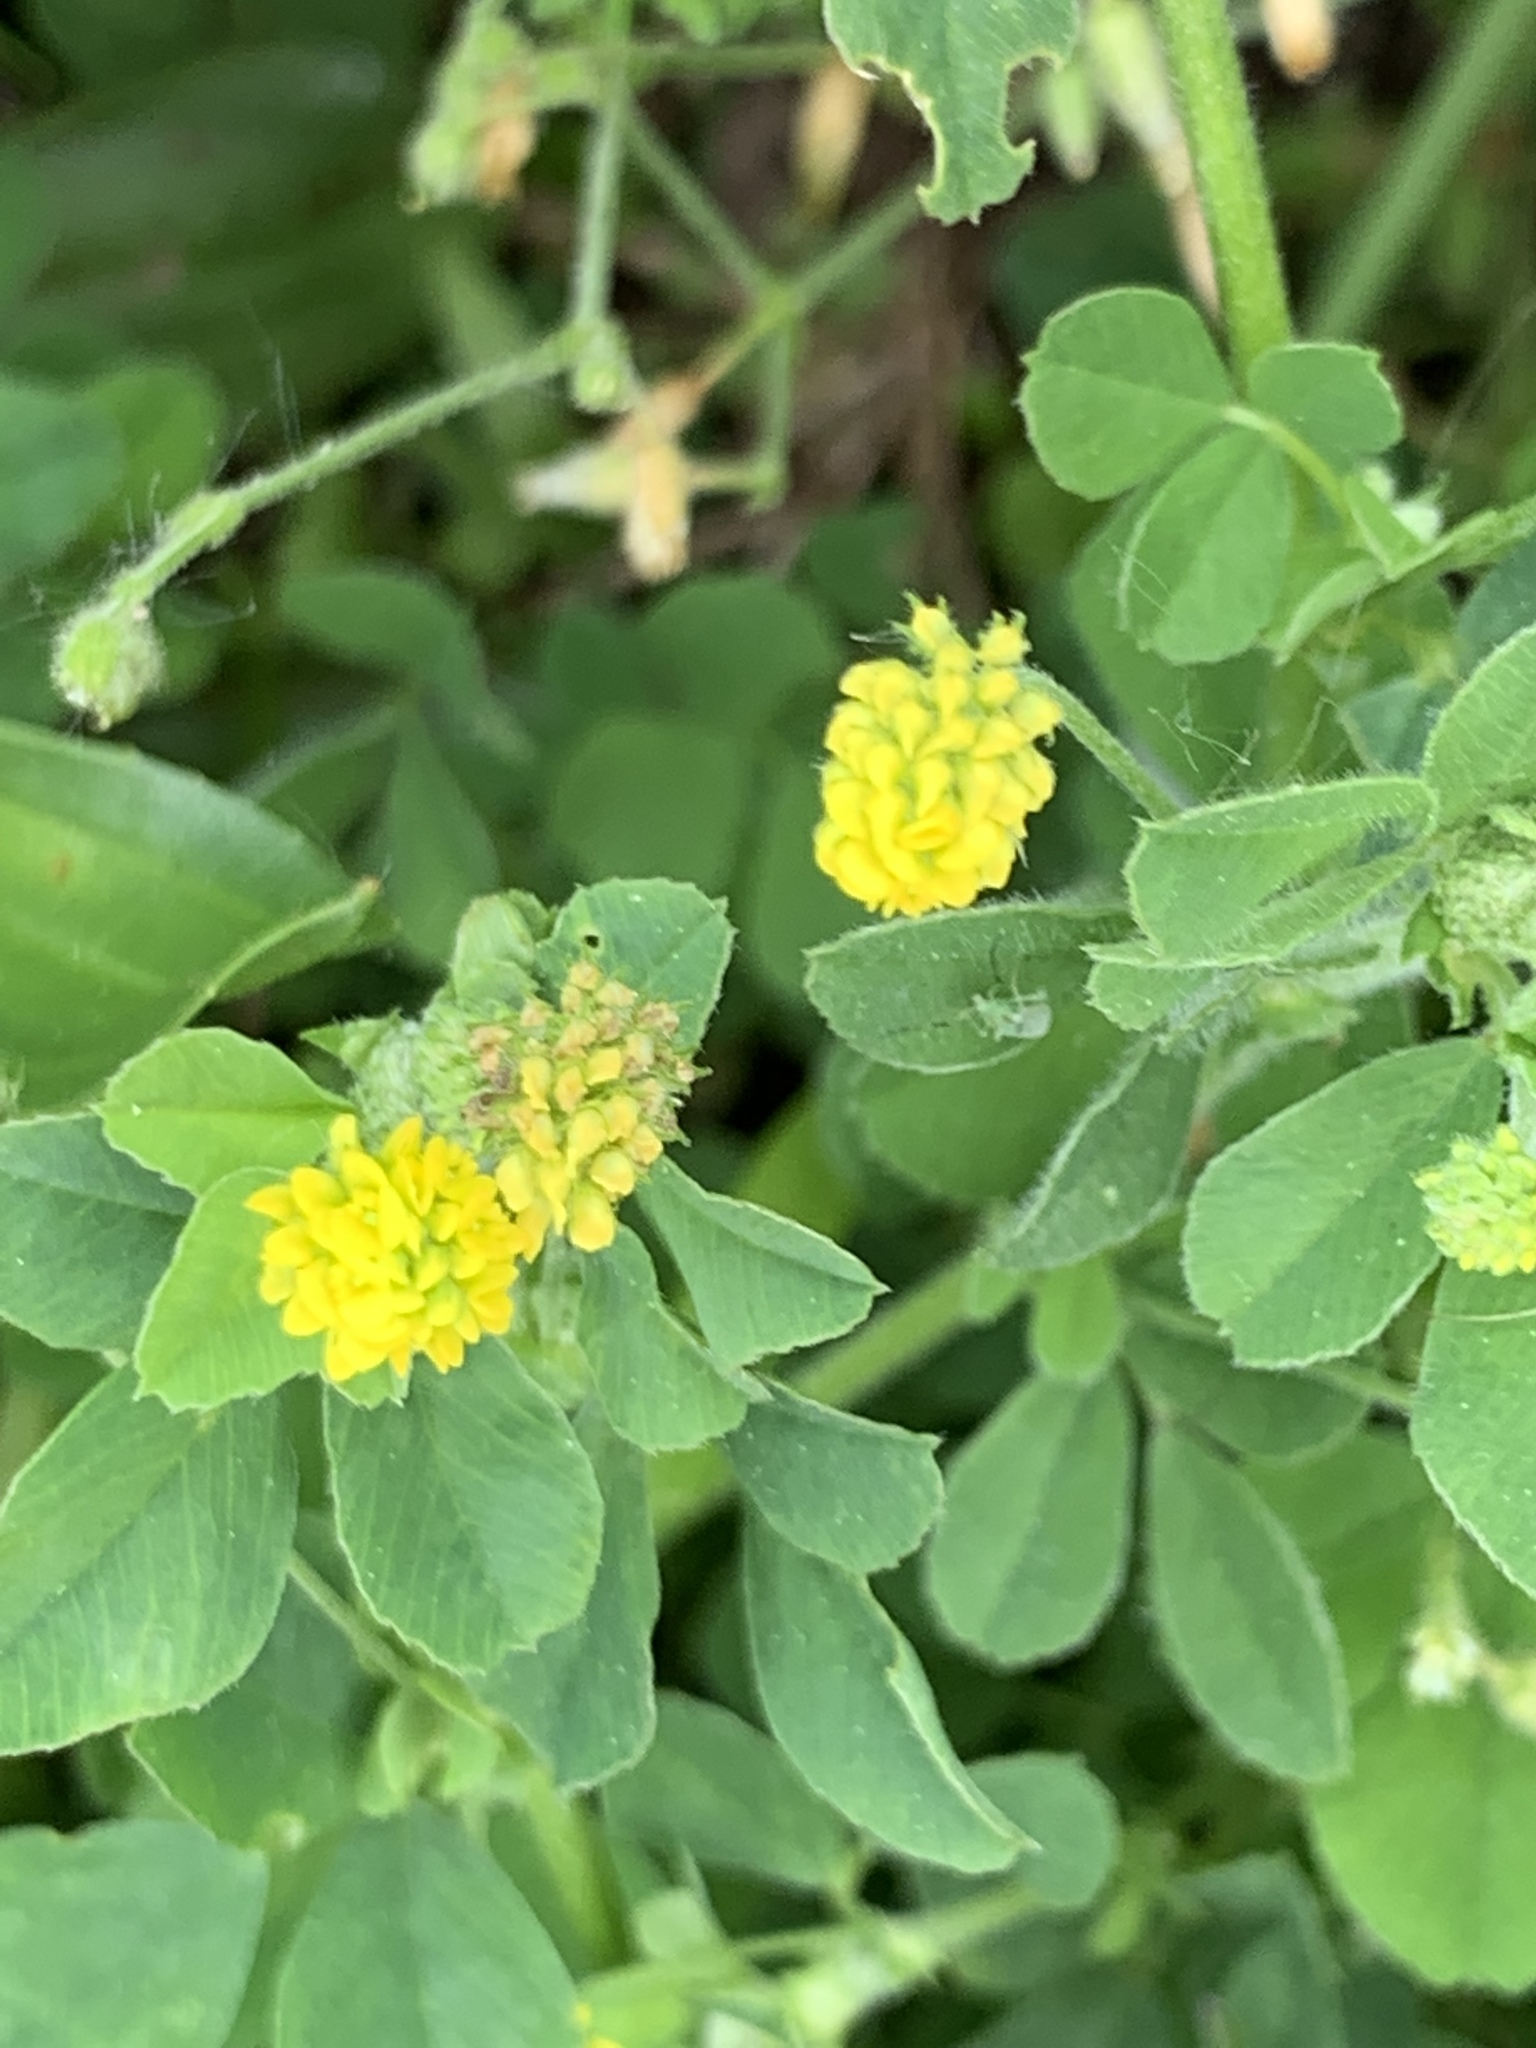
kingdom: Plantae
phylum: Tracheophyta
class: Magnoliopsida
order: Fabales
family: Fabaceae
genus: Medicago
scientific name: Medicago lupulina
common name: Black medick
